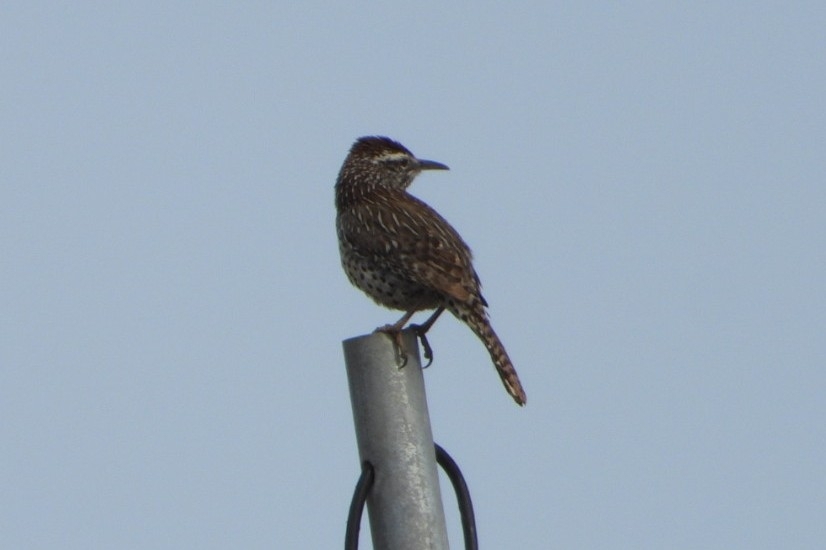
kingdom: Animalia
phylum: Chordata
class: Aves
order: Passeriformes
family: Troglodytidae
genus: Campylorhynchus
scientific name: Campylorhynchus brunneicapillus
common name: Cactus wren
